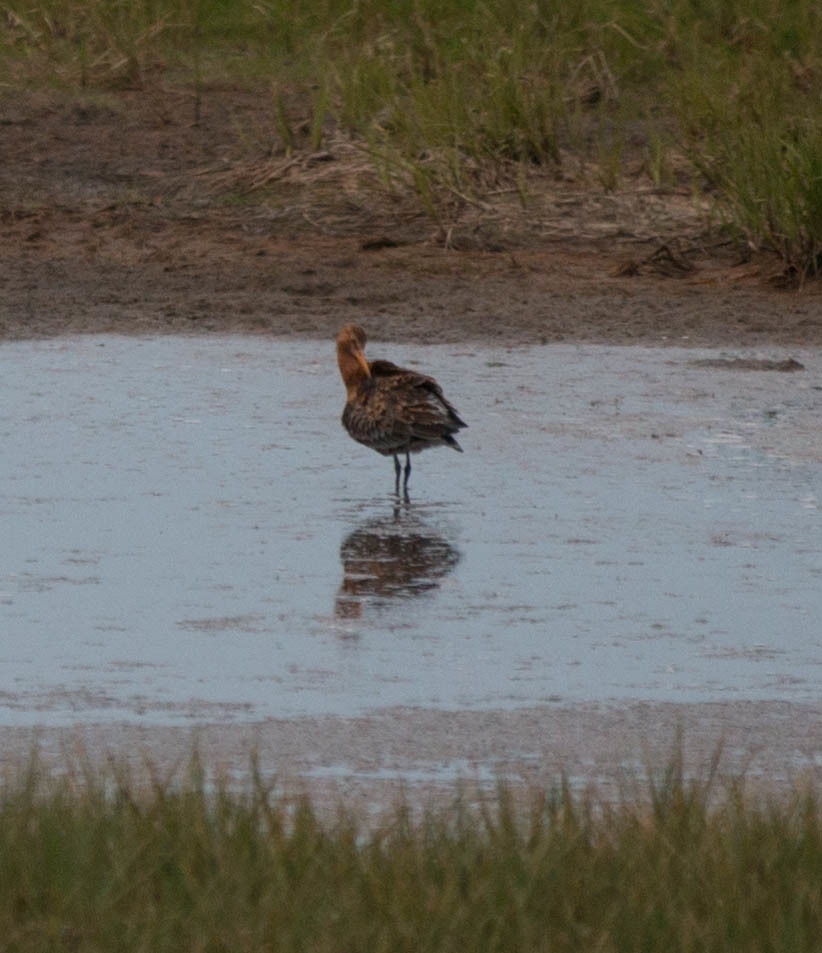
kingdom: Animalia
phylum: Chordata
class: Aves
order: Charadriiformes
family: Scolopacidae
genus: Limosa
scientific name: Limosa limosa
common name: Black-tailed godwit
